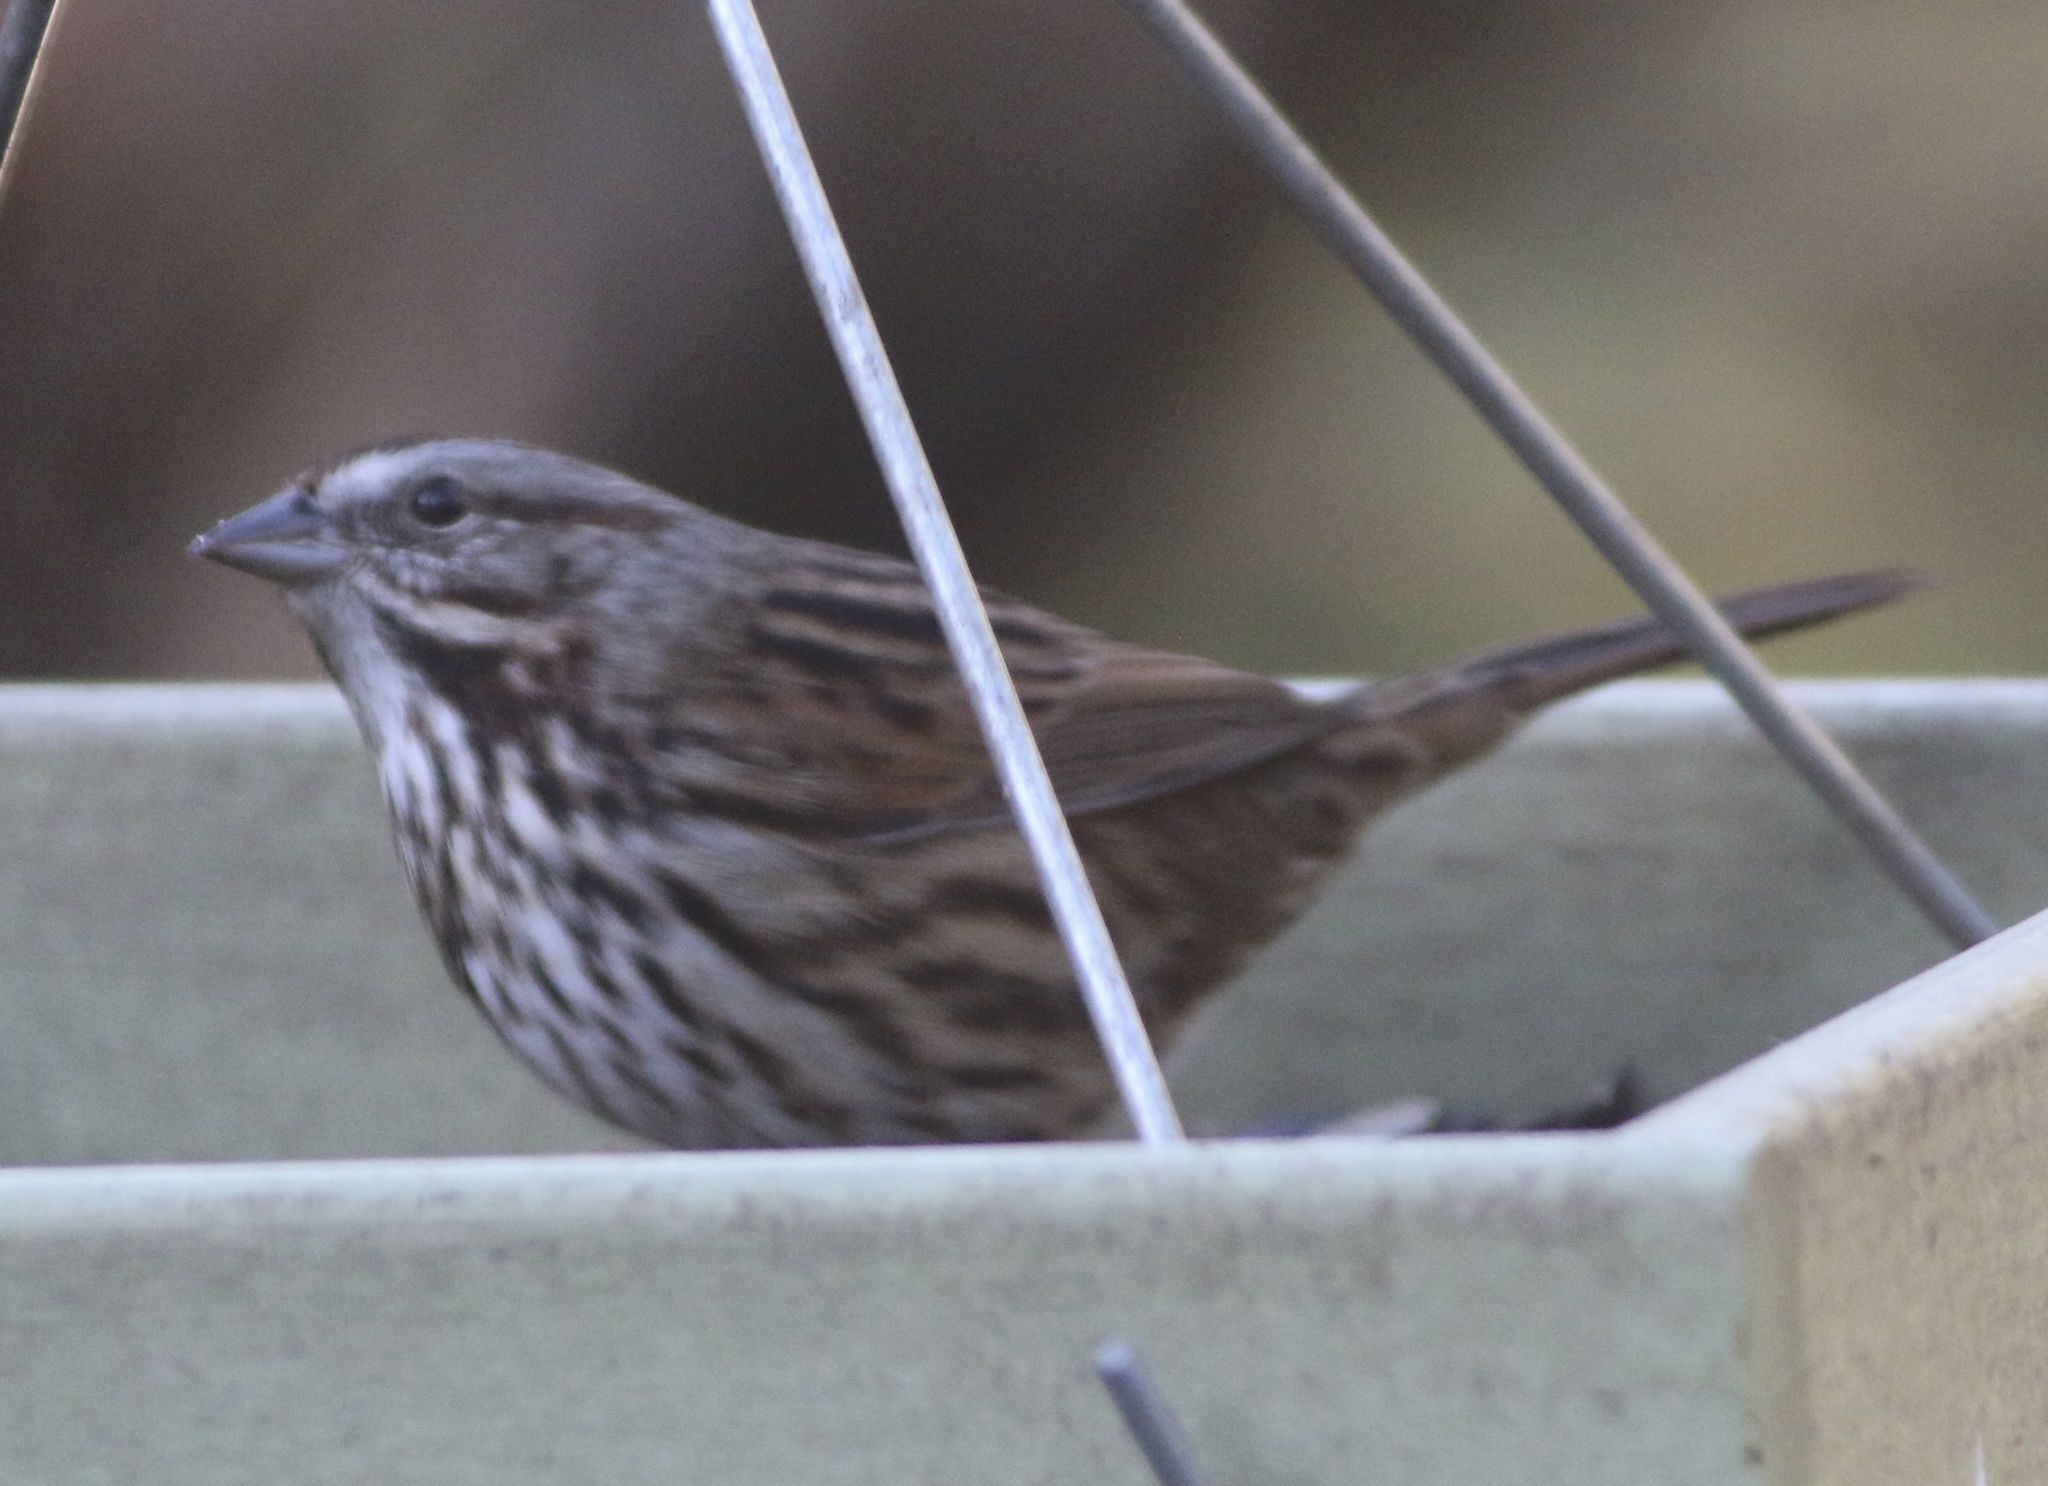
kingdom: Animalia
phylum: Chordata
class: Aves
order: Passeriformes
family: Passerellidae
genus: Melospiza
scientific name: Melospiza melodia
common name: Song sparrow
